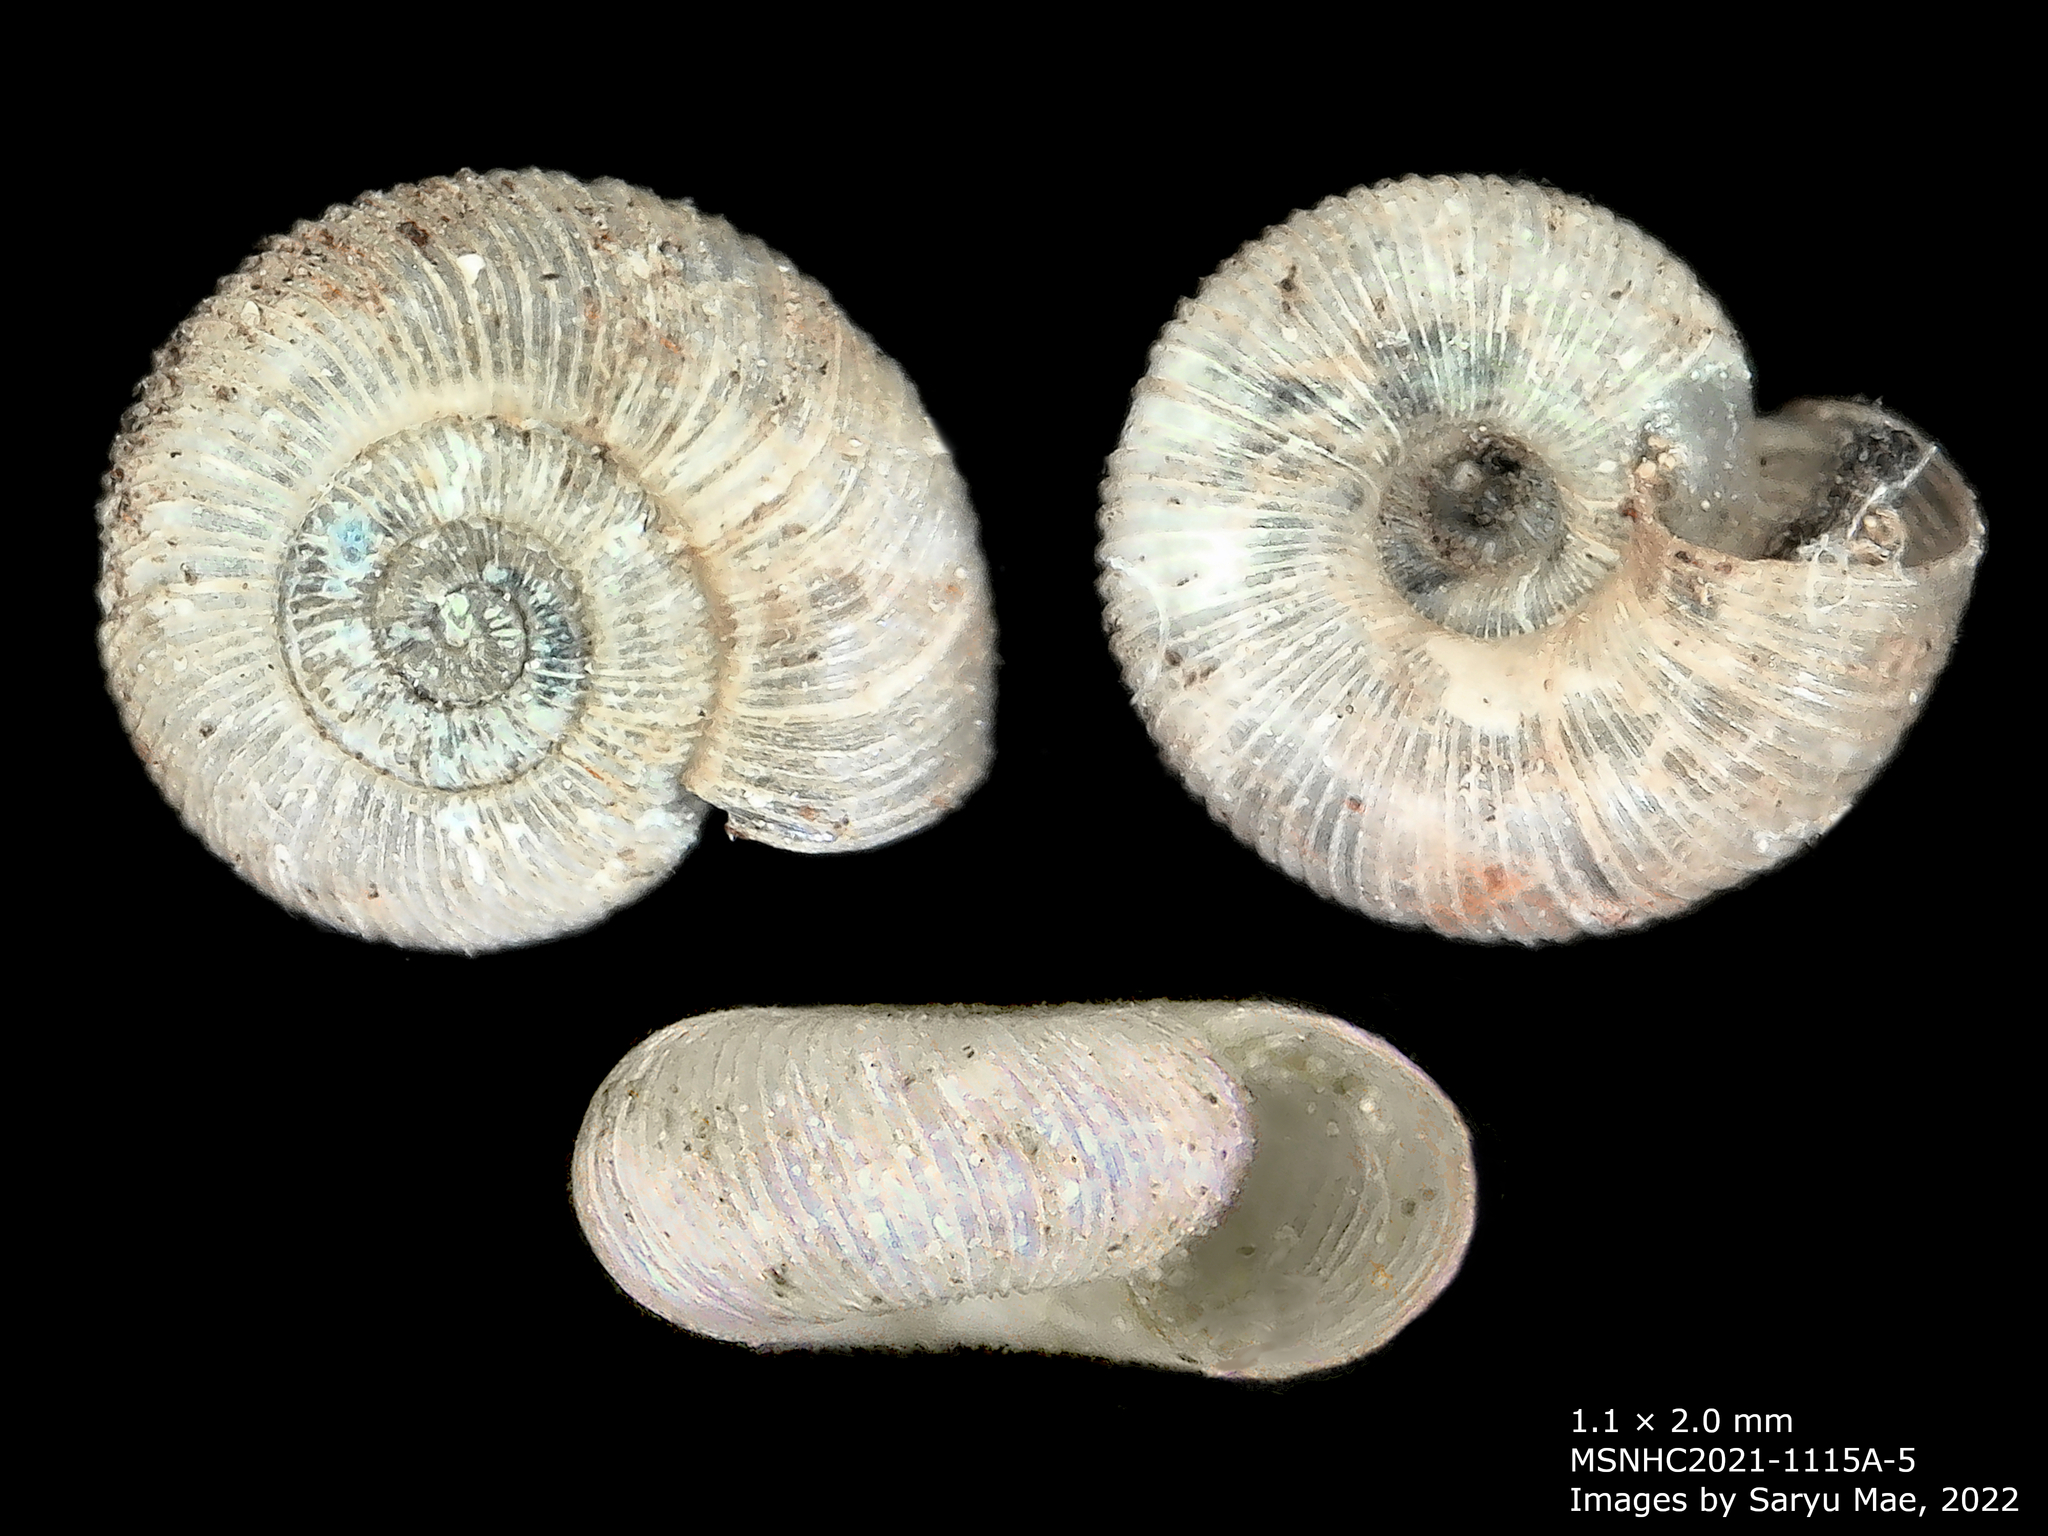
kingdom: Animalia
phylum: Mollusca
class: Gastropoda
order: Stylommatophora
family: Charopidae
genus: Mocella
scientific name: Mocella eta
